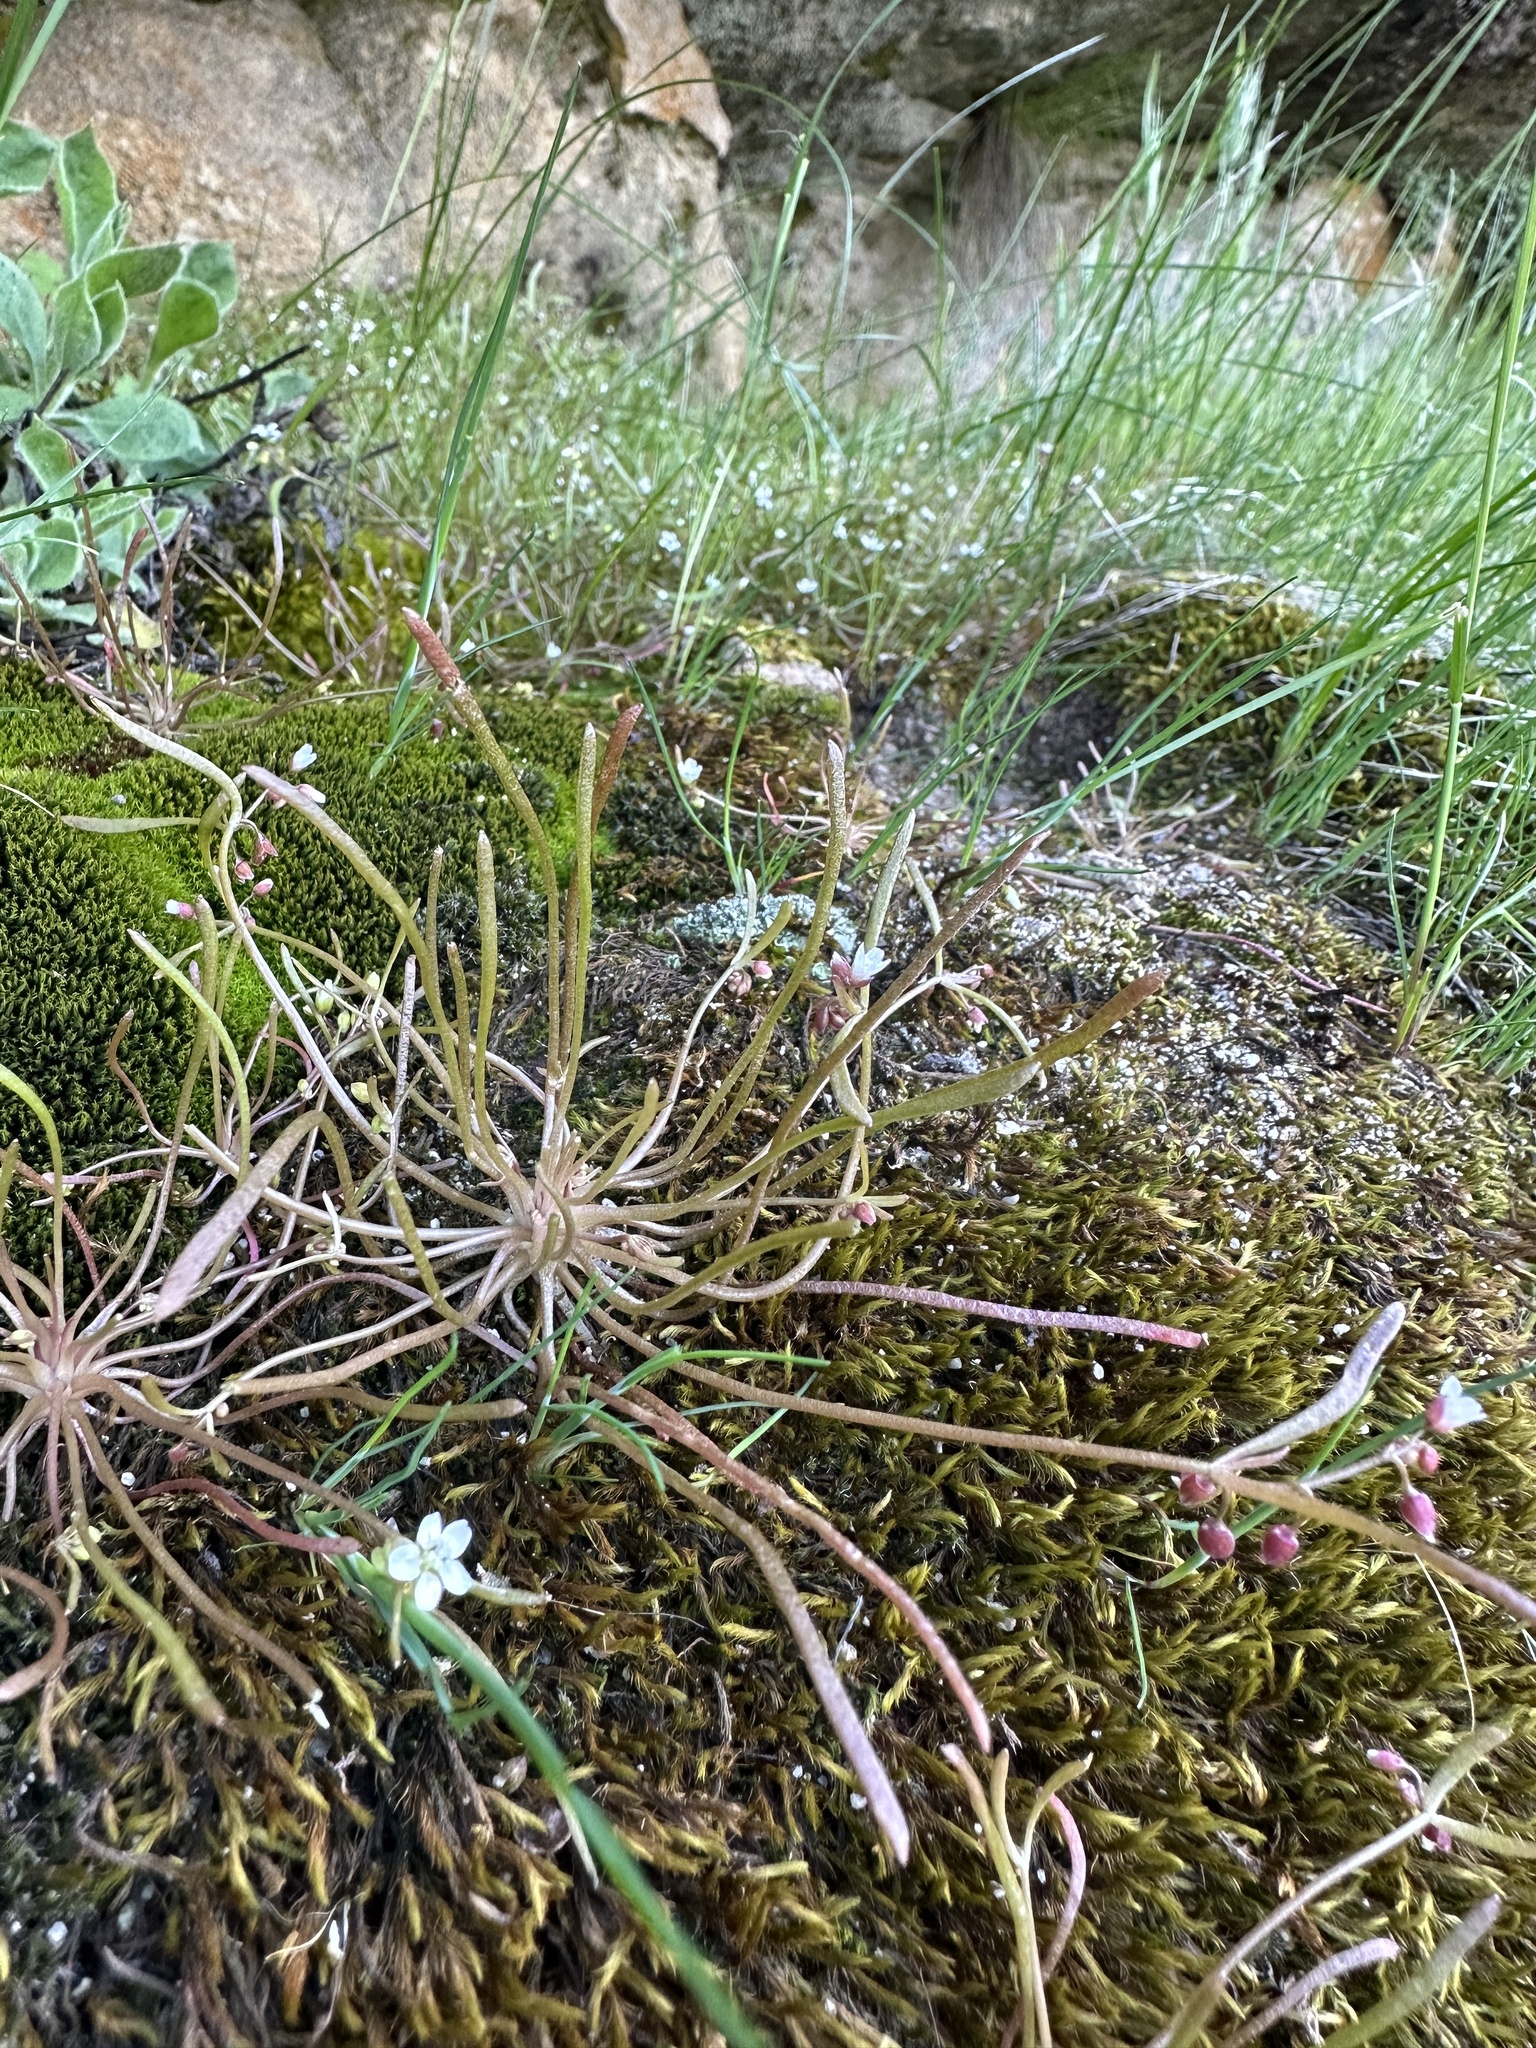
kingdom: Plantae
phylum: Tracheophyta
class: Magnoliopsida
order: Caryophyllales
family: Montiaceae
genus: Claytonia
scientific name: Claytonia parviflora
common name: Indian-lettuce
